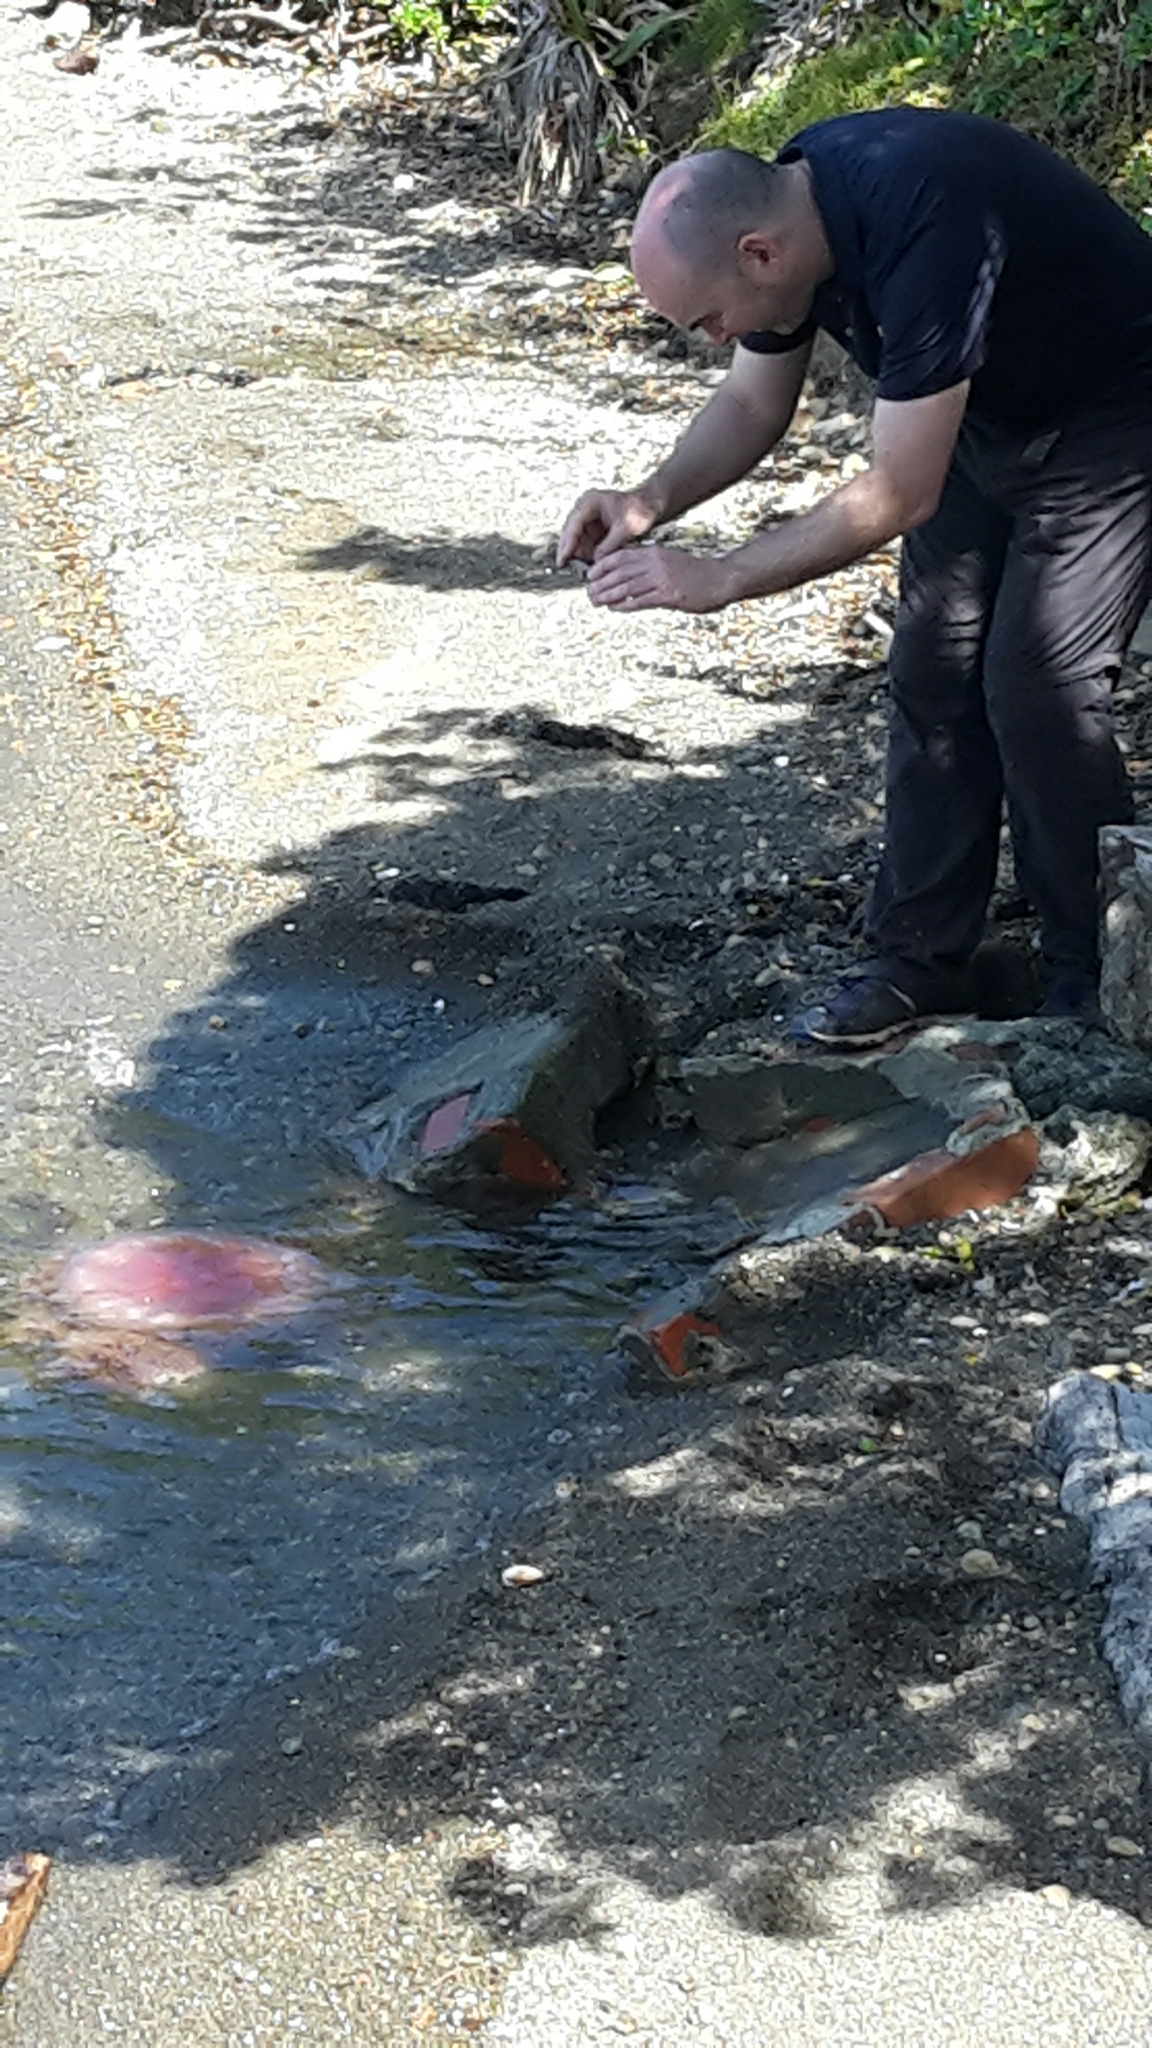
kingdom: Animalia
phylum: Cnidaria
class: Scyphozoa
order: Semaeostomeae
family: Cyaneidae
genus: Cyanea
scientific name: Cyanea
